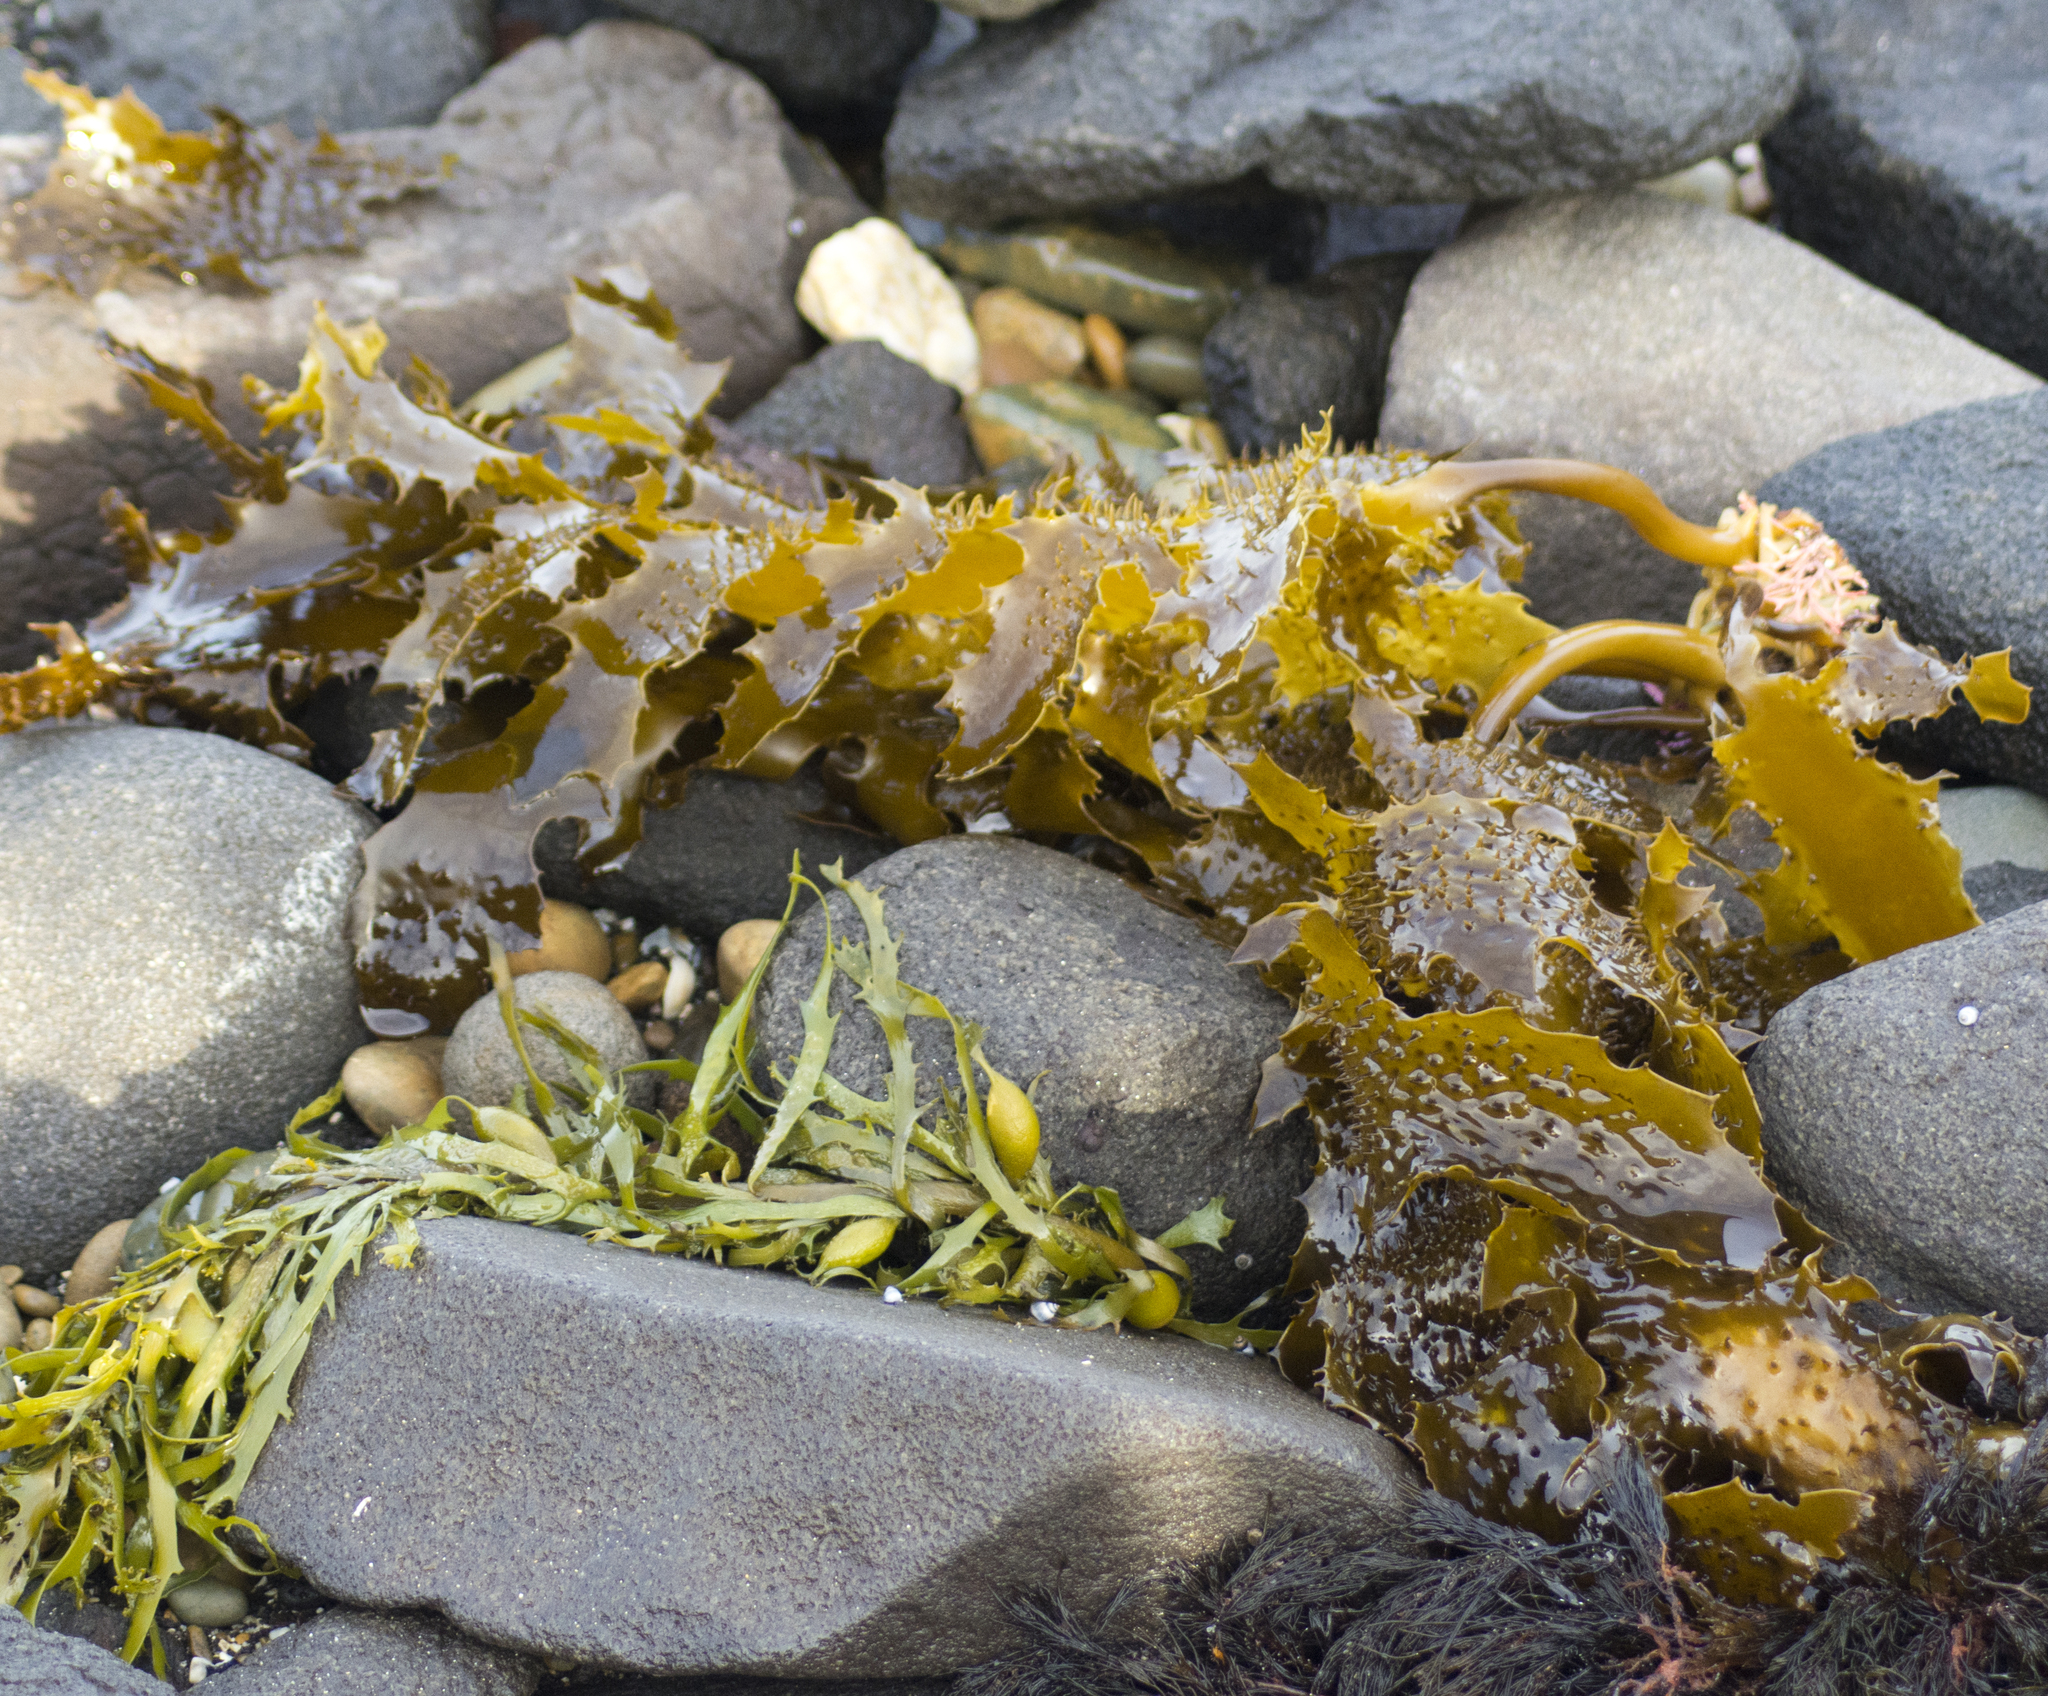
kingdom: Chromista
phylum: Ochrophyta
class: Phaeophyceae
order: Laminariales
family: Lessoniaceae
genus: Ecklonia
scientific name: Ecklonia radiata
